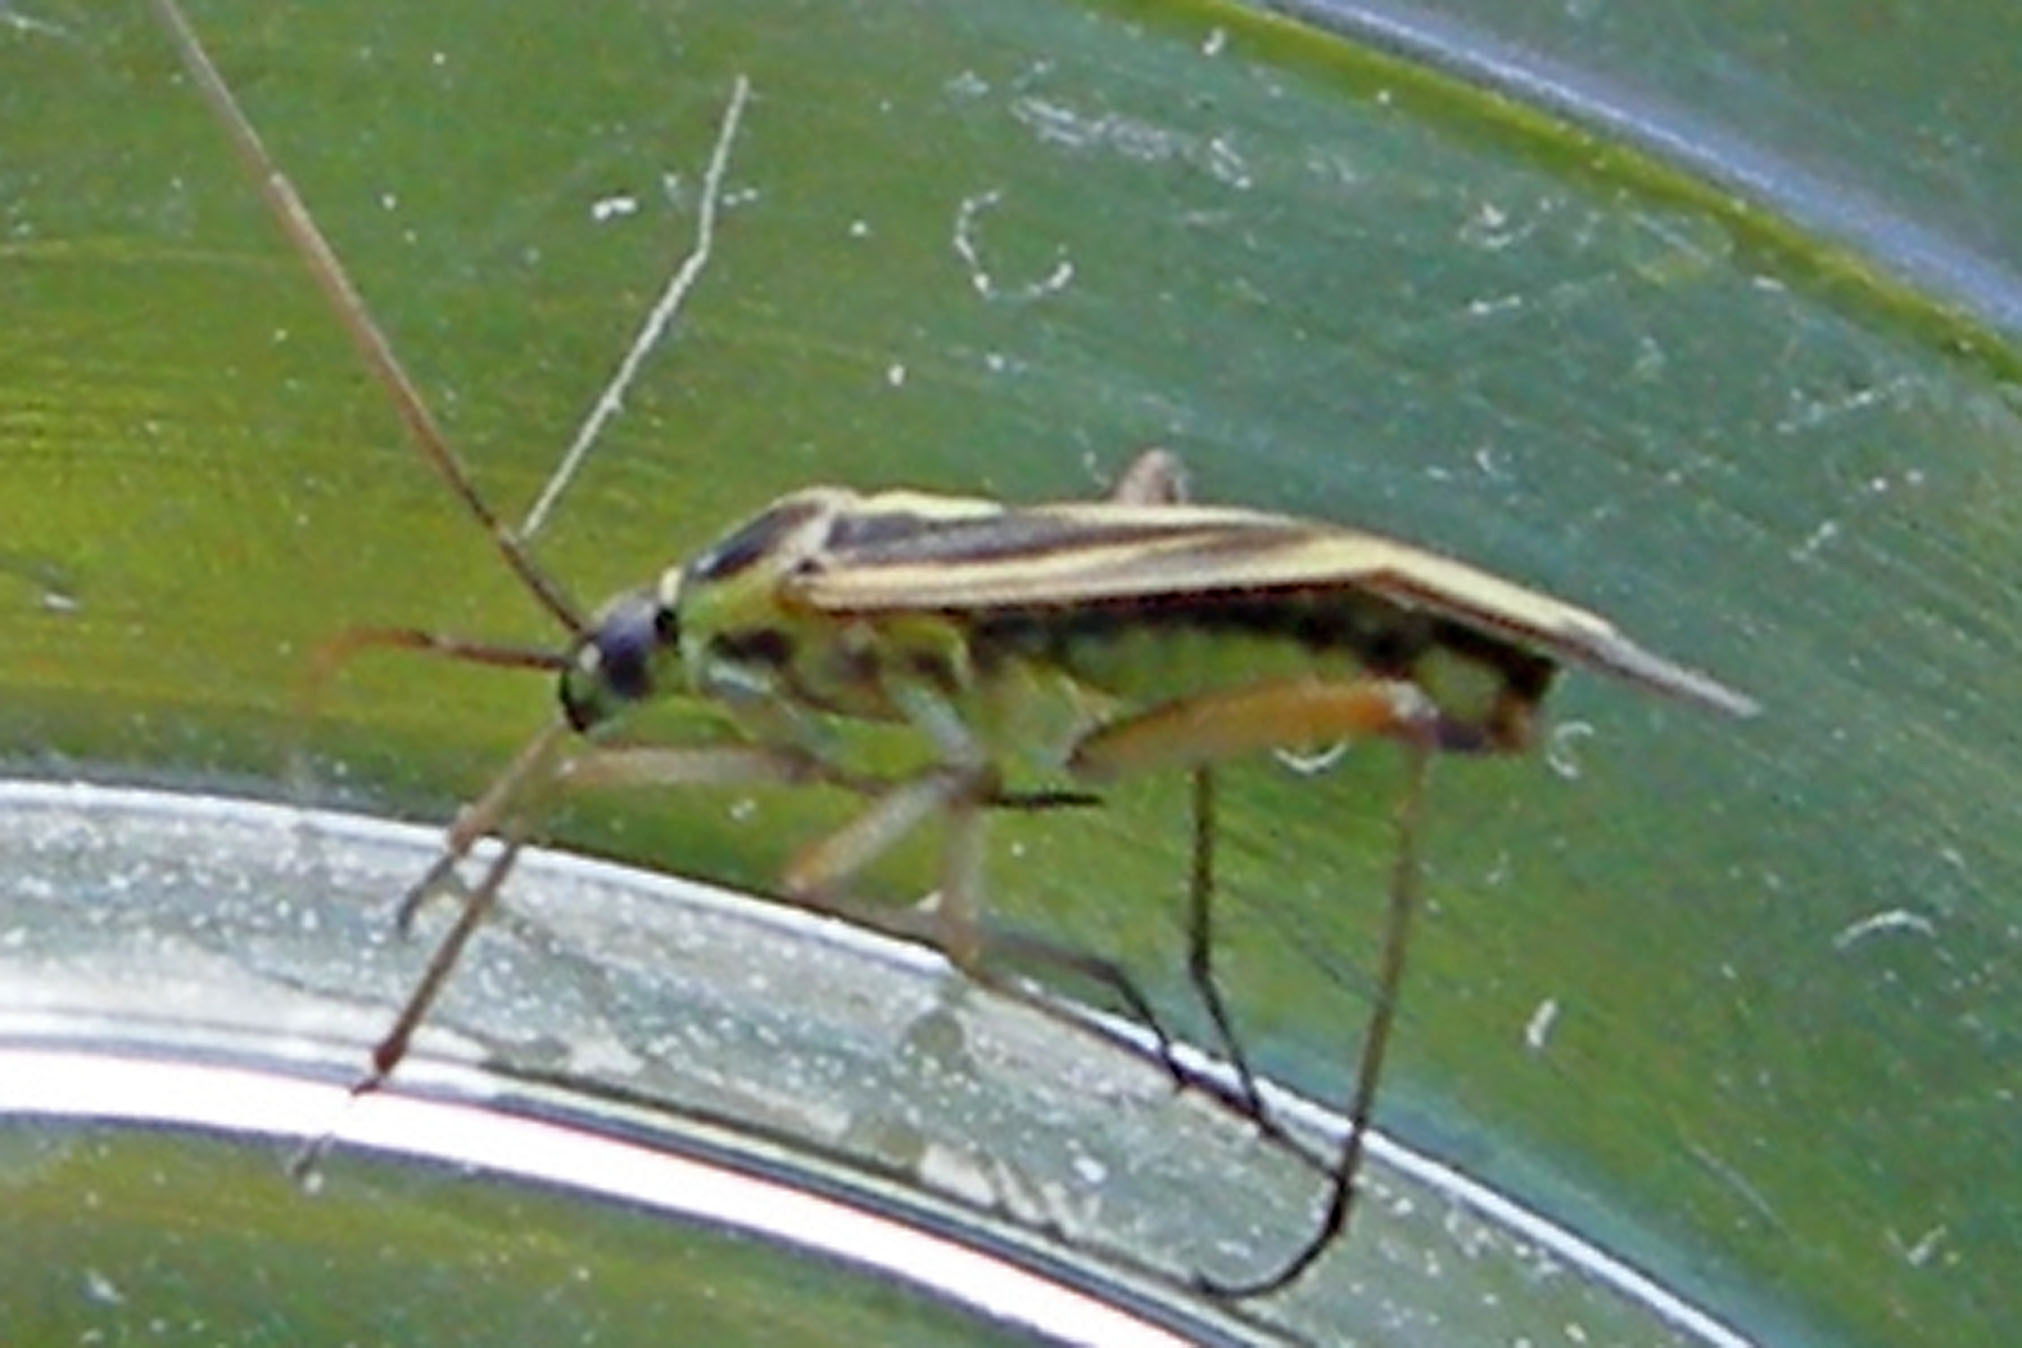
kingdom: Animalia
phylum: Arthropoda
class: Insecta
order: Hemiptera
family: Miridae
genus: Stenotus
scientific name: Stenotus binotatus
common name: Plant bug
